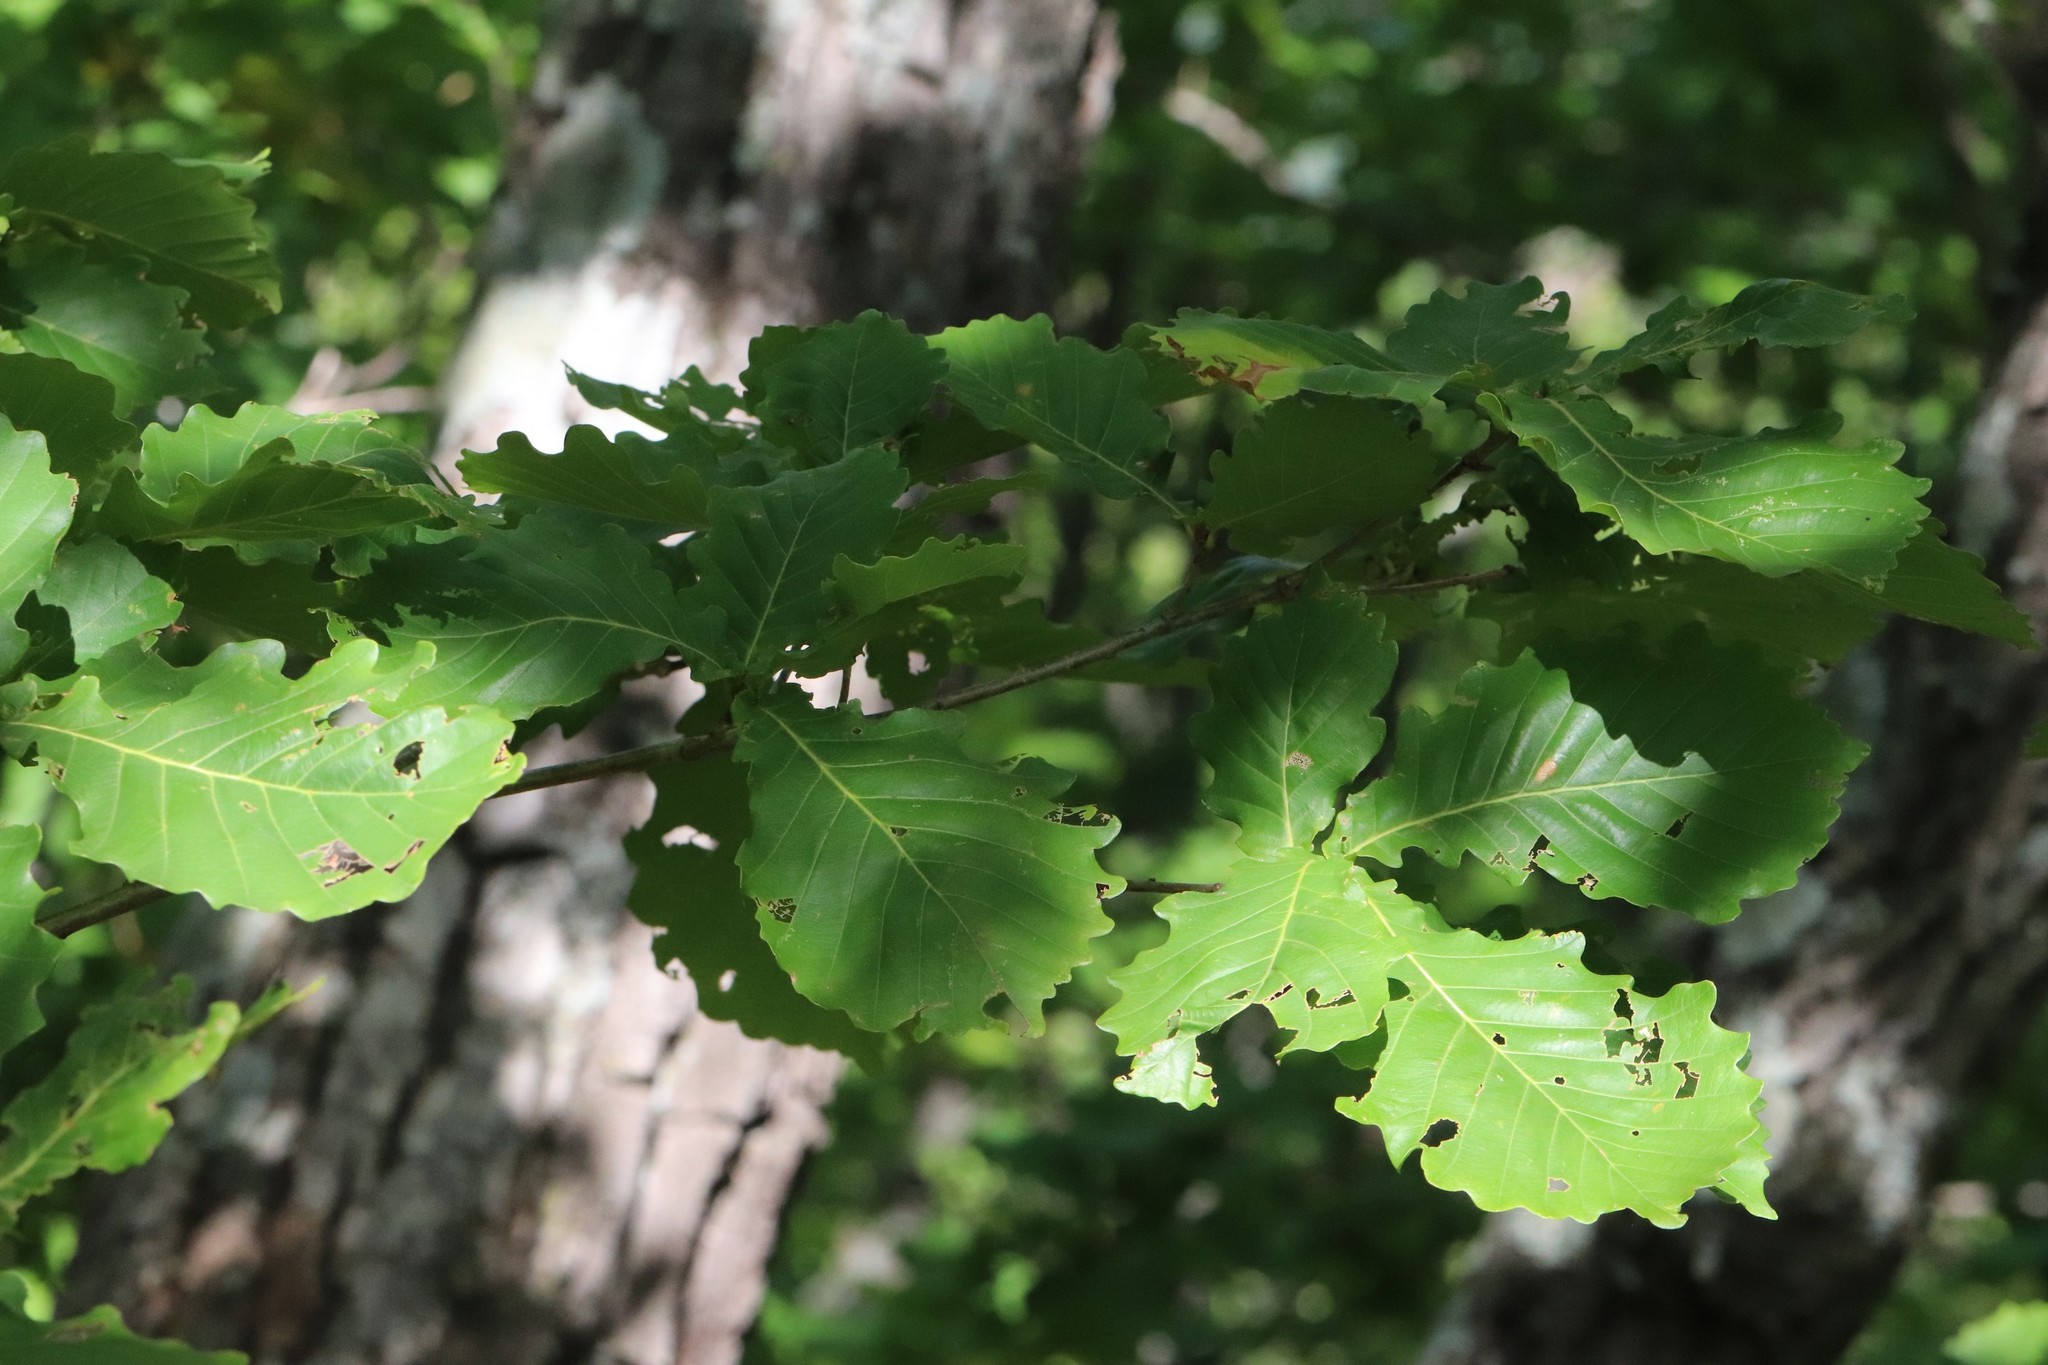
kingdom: Plantae
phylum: Tracheophyta
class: Magnoliopsida
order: Fagales
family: Fagaceae
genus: Quercus
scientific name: Quercus mongolica
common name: Mongolian oak
